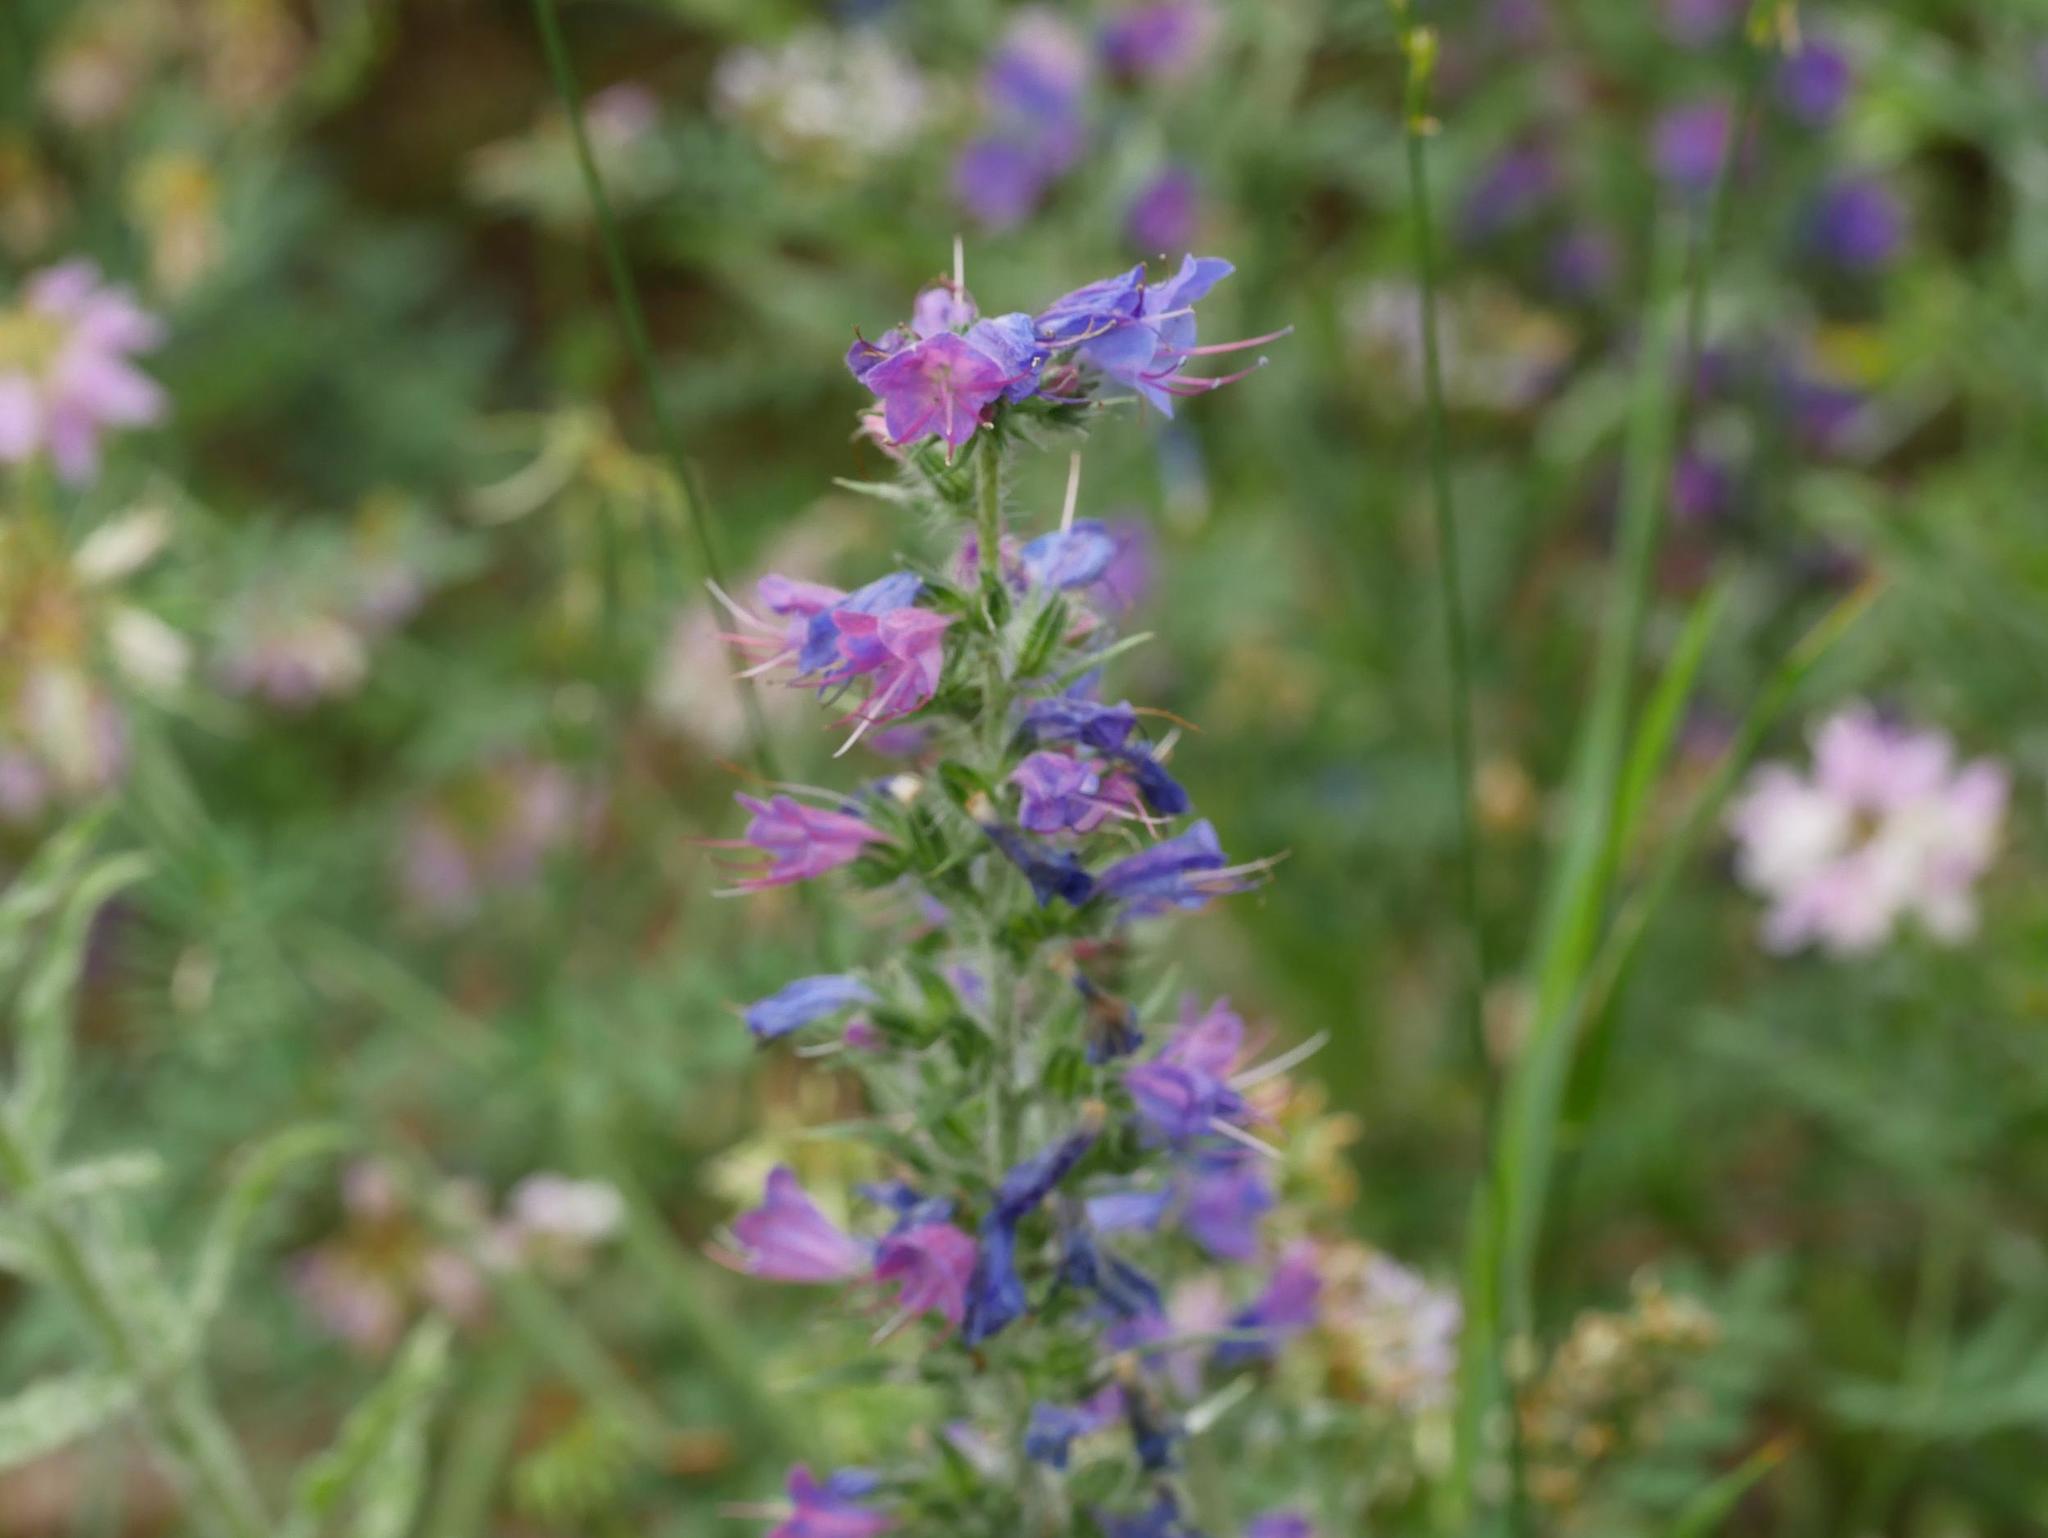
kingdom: Plantae
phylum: Tracheophyta
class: Magnoliopsida
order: Boraginales
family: Boraginaceae
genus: Echium
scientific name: Echium vulgare
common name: Common viper's bugloss
